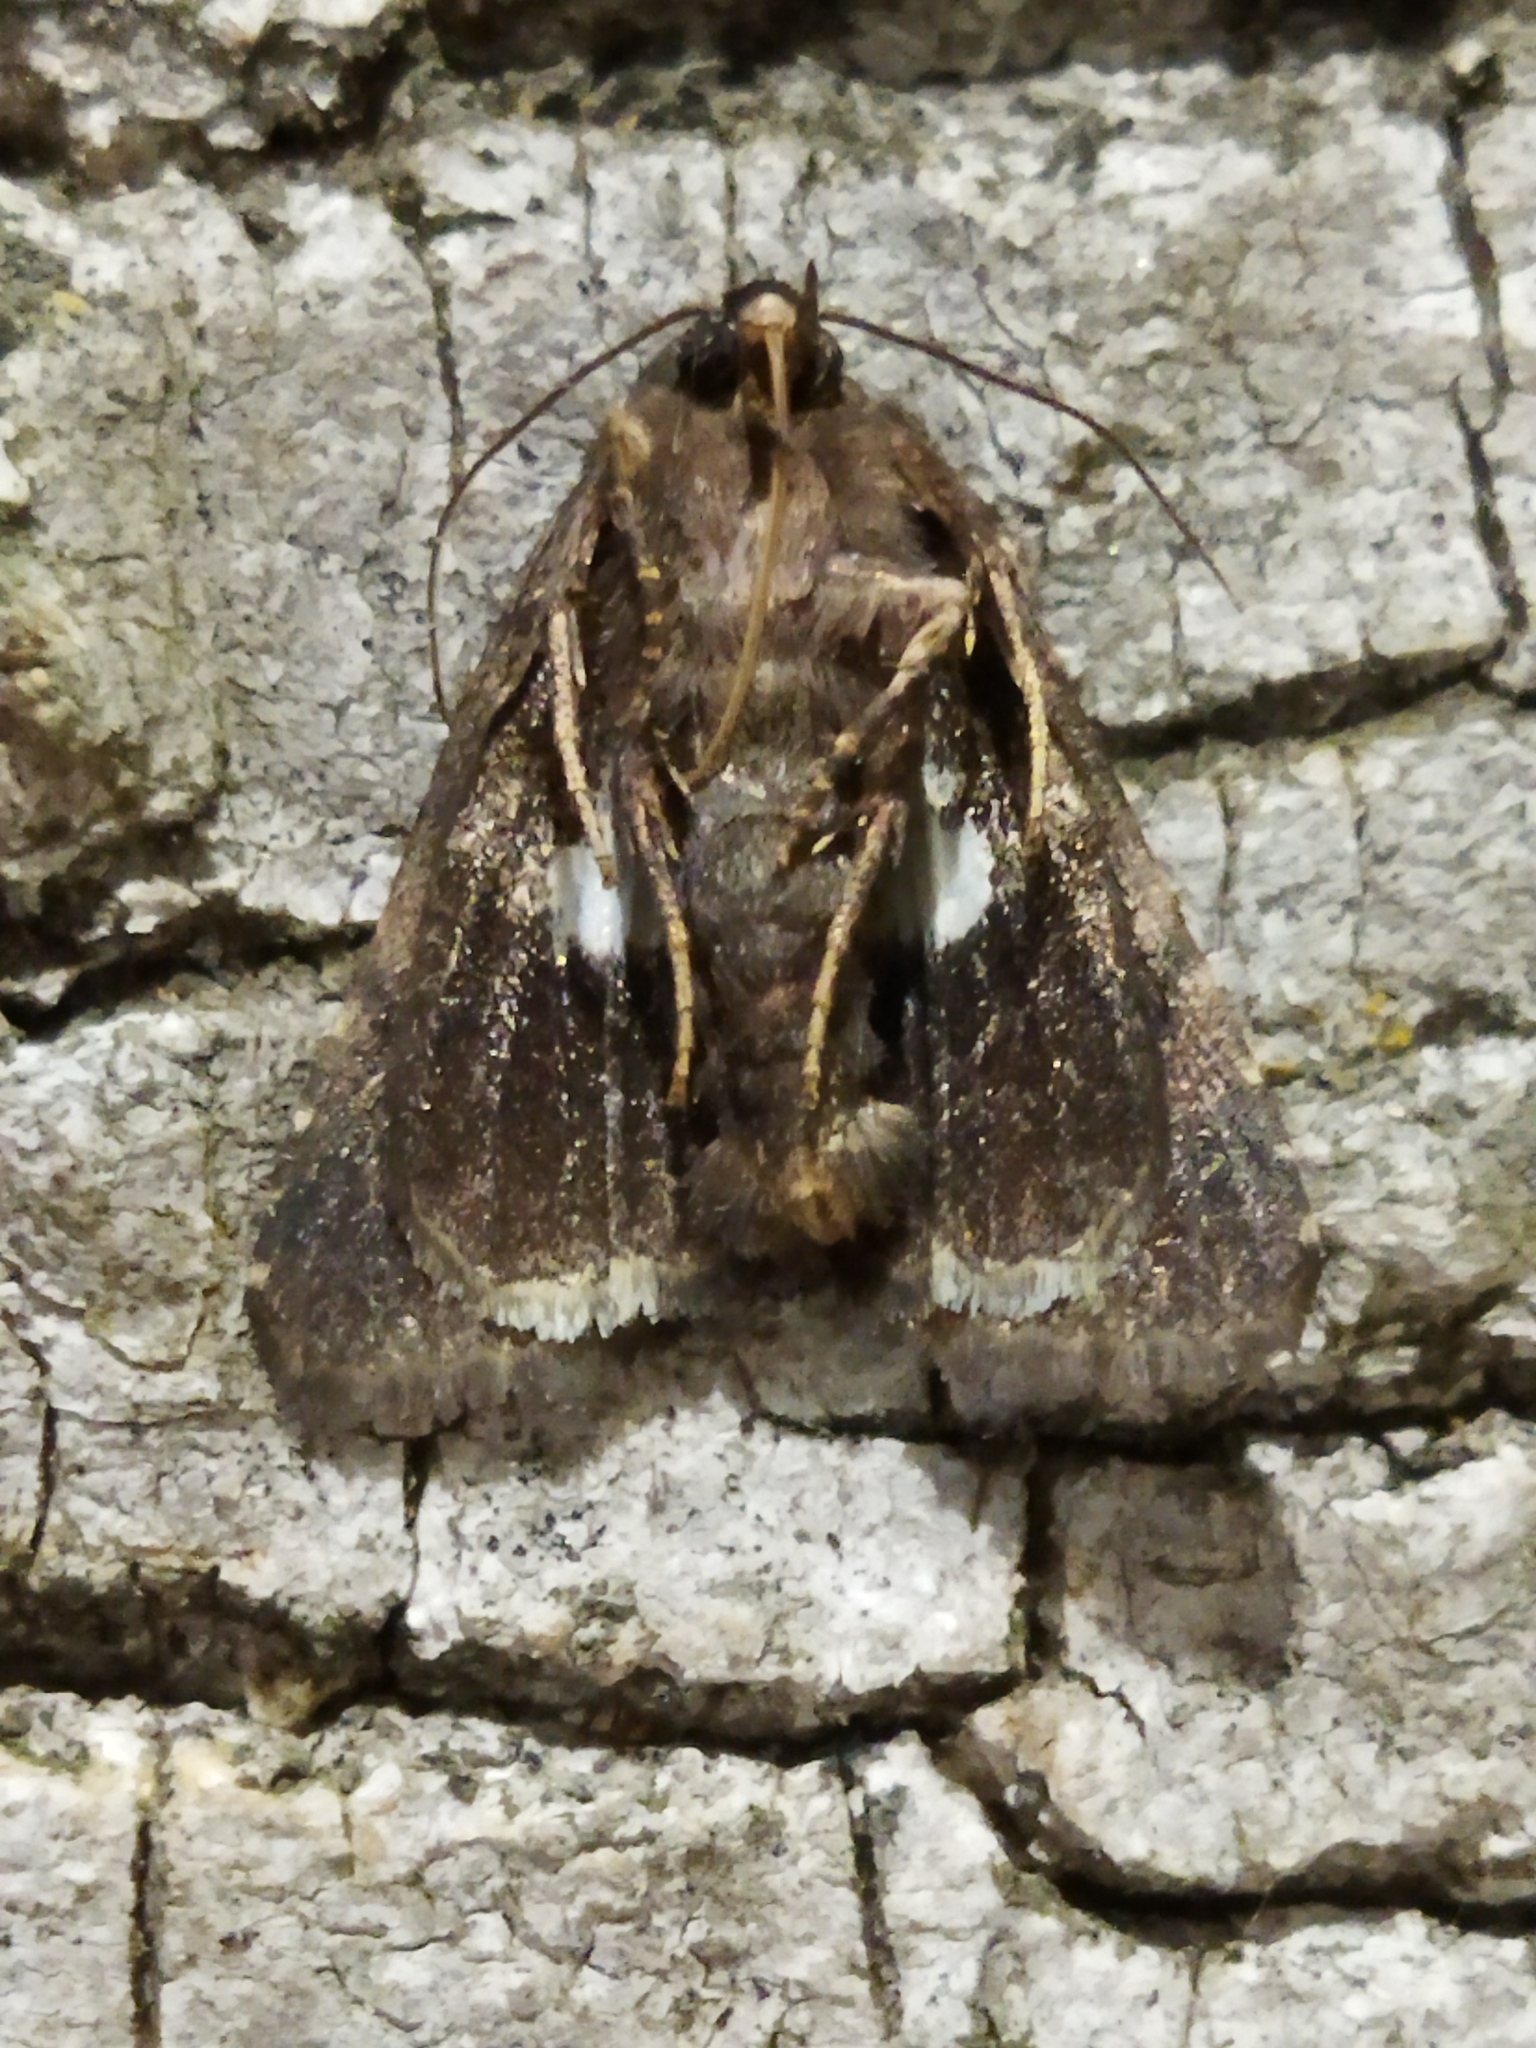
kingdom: Animalia
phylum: Arthropoda
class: Insecta
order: Lepidoptera
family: Noctuidae
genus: Aedia
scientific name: Aedia funesta
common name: The druid
